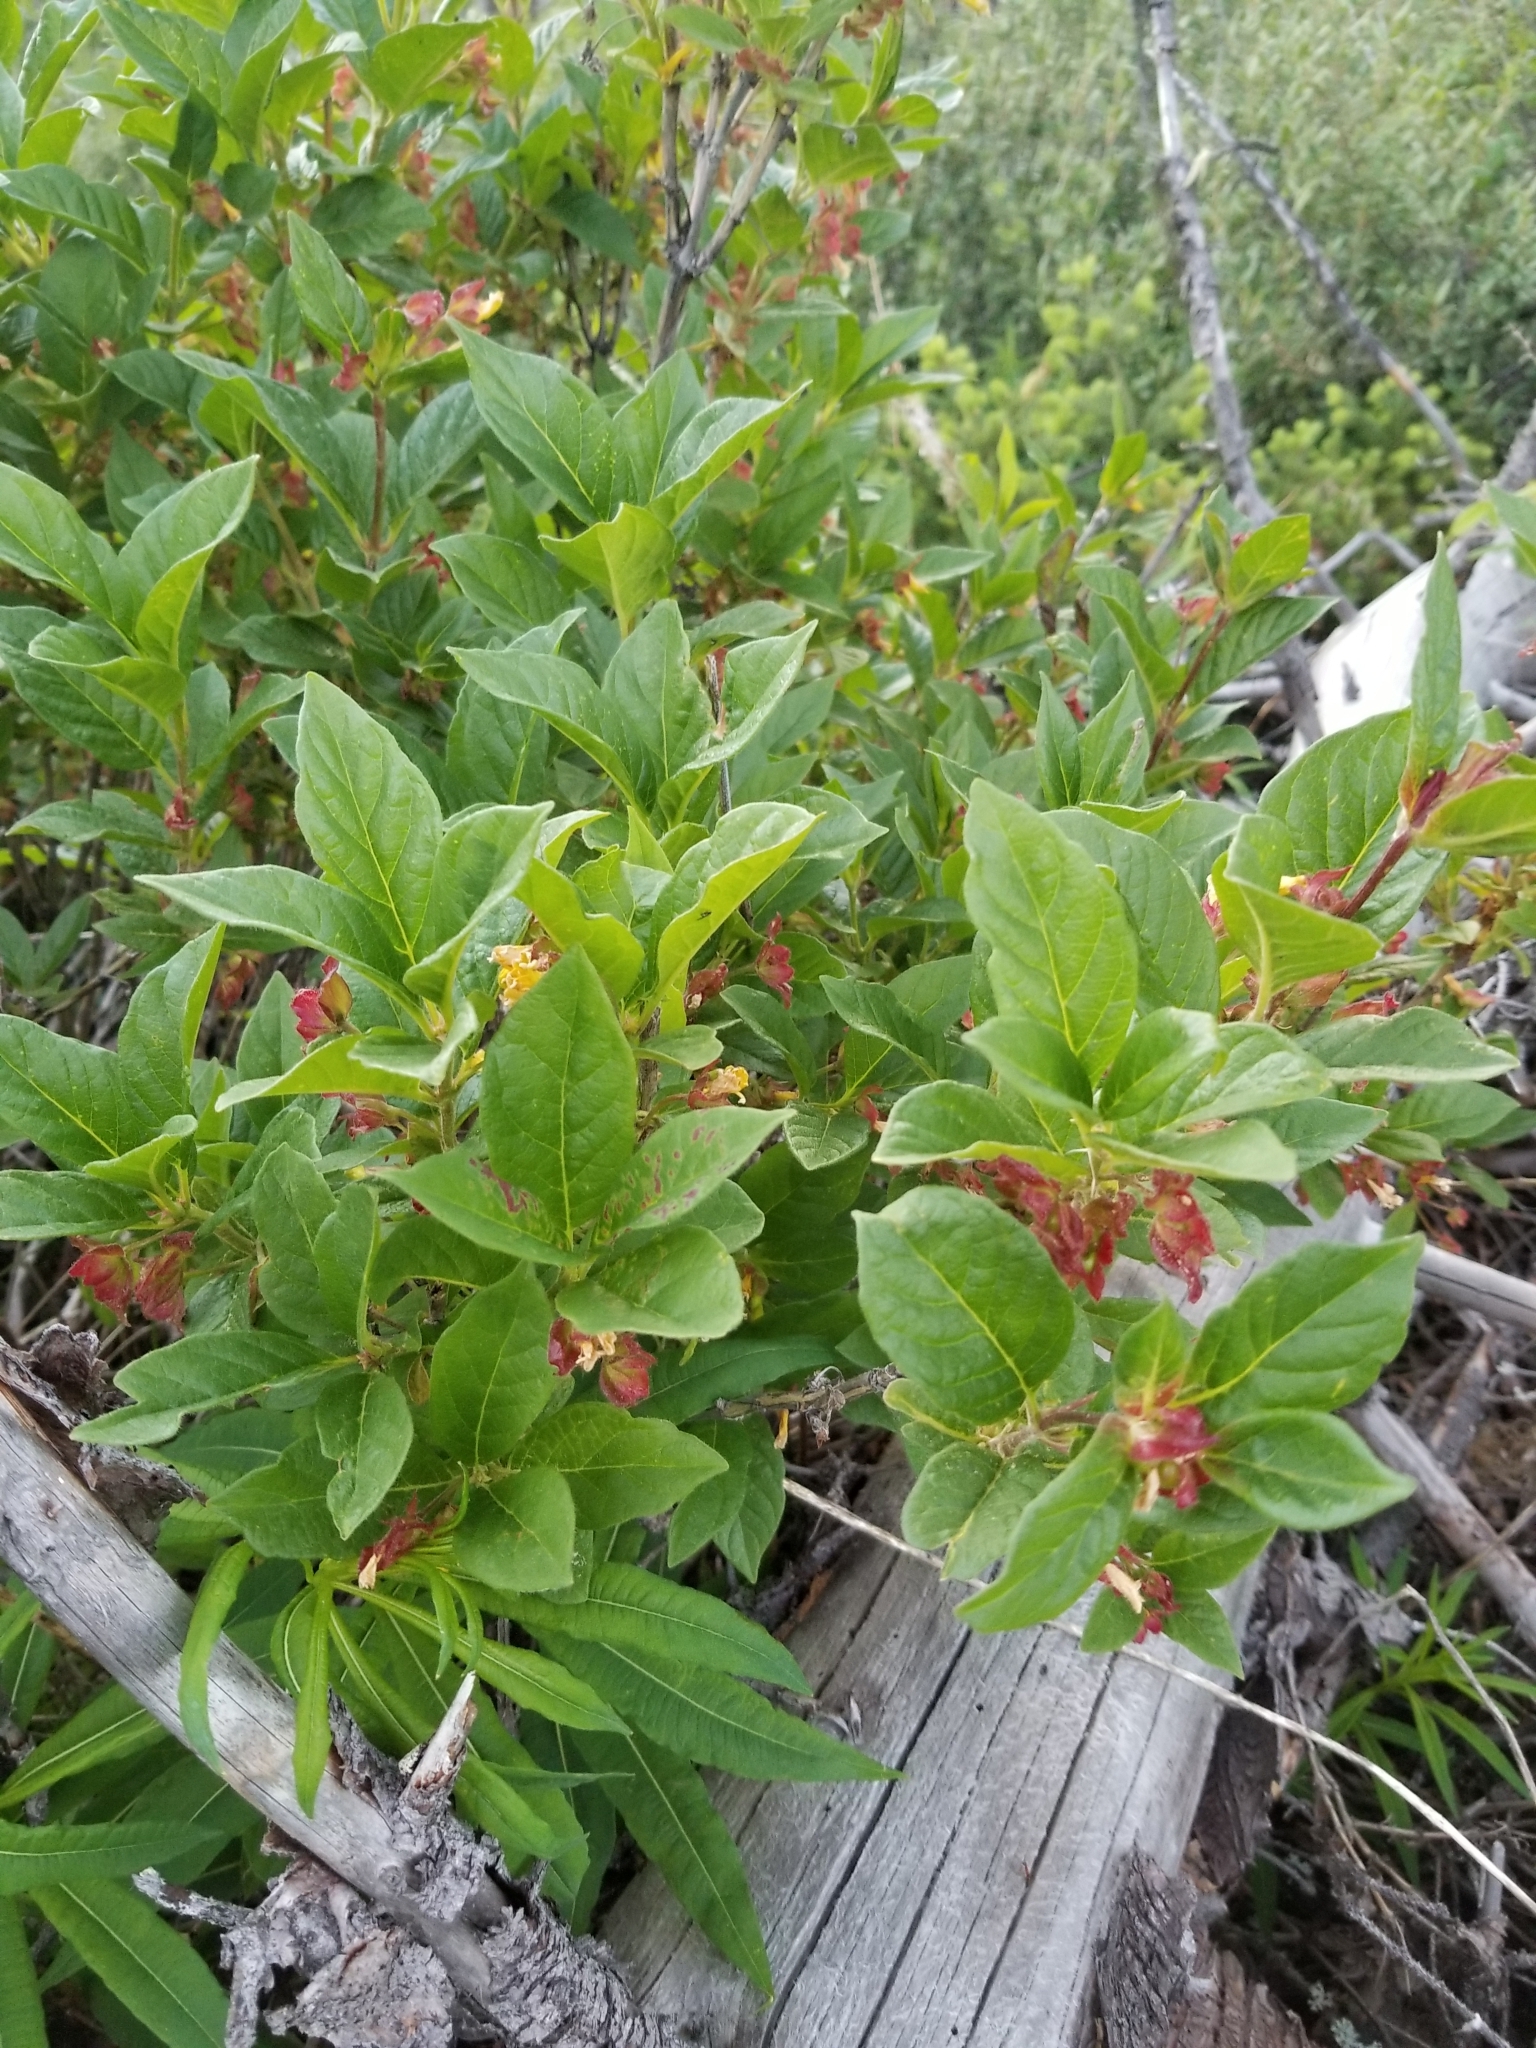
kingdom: Plantae
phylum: Tracheophyta
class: Magnoliopsida
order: Dipsacales
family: Caprifoliaceae
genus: Lonicera
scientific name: Lonicera involucrata
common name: Californian honeysuckle
